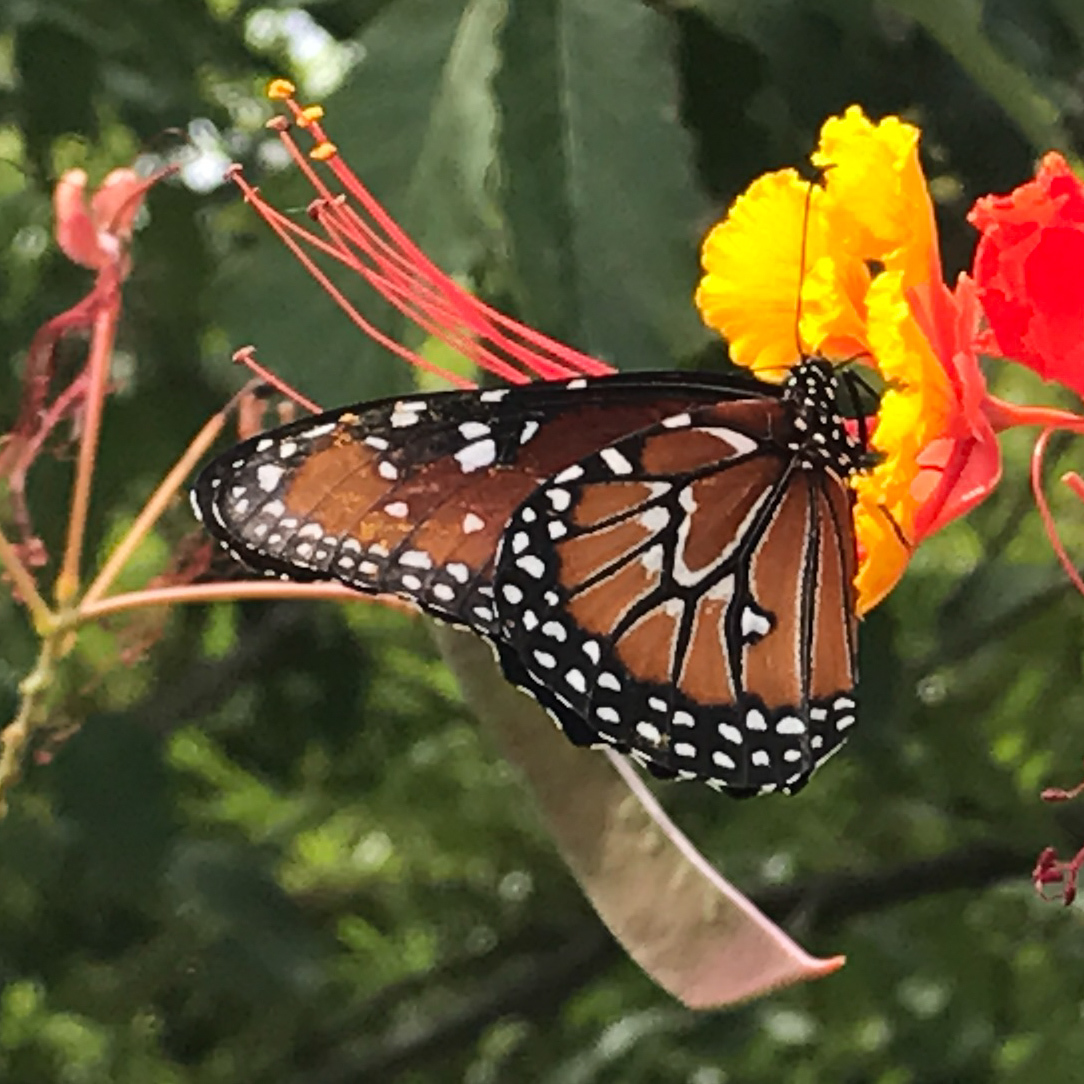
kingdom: Animalia
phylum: Arthropoda
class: Insecta
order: Lepidoptera
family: Nymphalidae
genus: Danaus
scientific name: Danaus gilippus
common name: Queen
